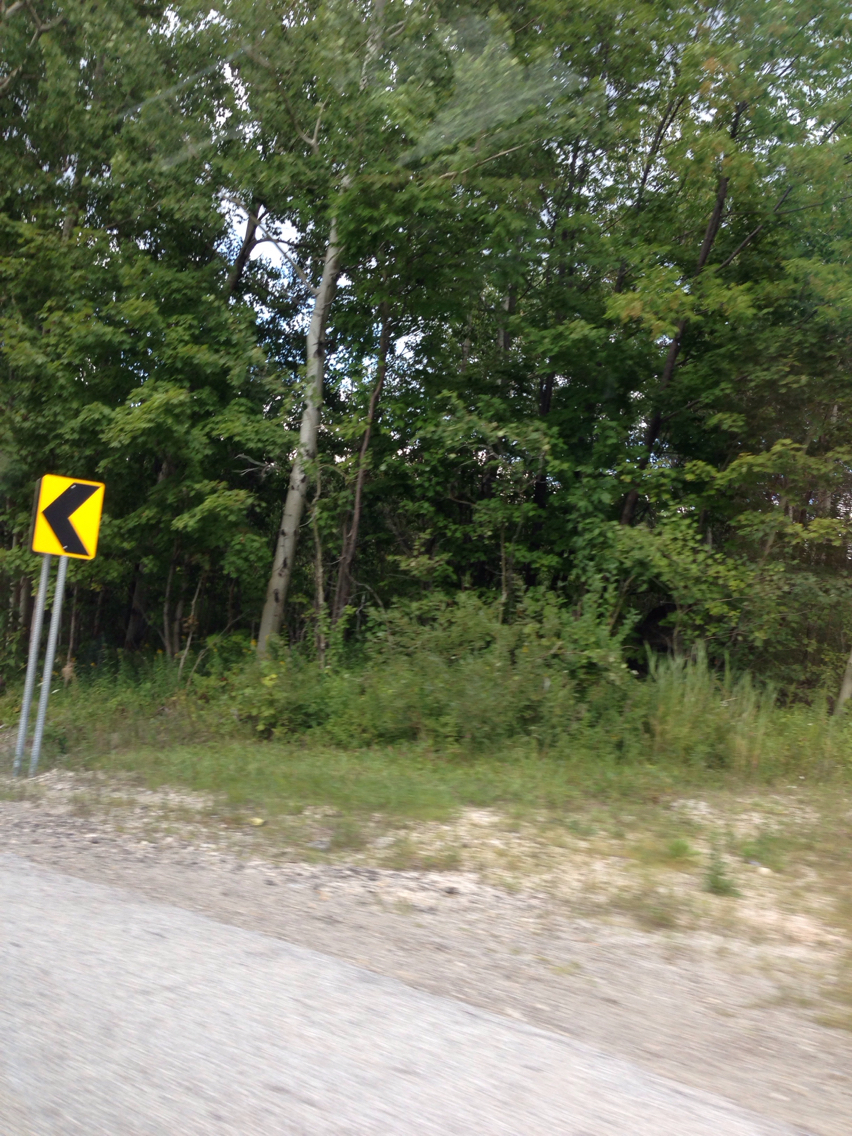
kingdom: Plantae
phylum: Tracheophyta
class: Magnoliopsida
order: Malpighiales
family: Salicaceae
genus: Populus
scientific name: Populus tremuloides
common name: Quaking aspen
